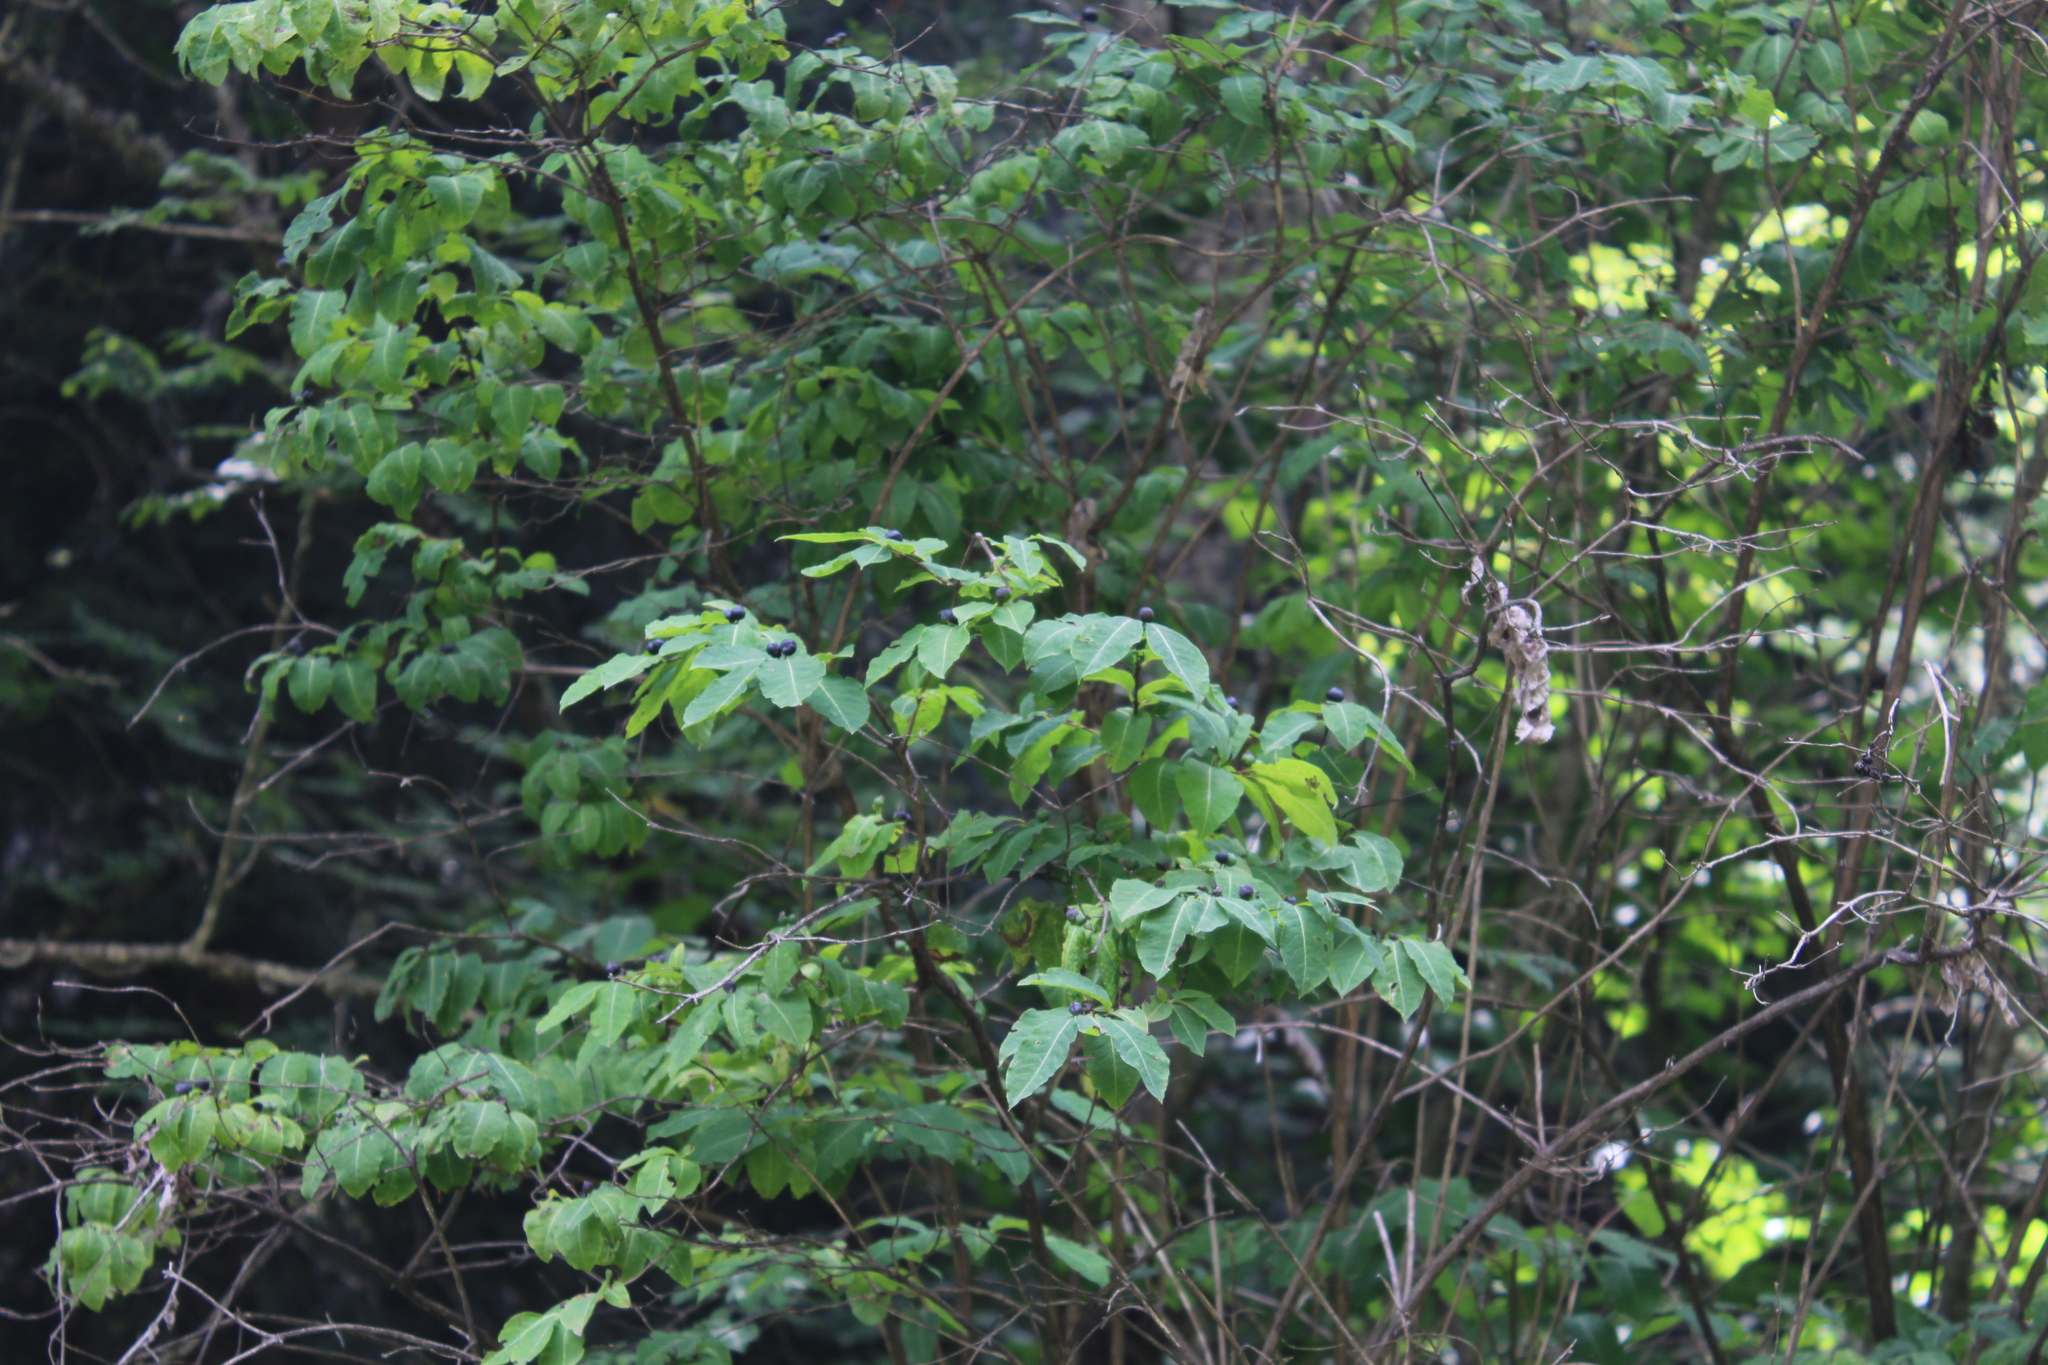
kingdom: Plantae
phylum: Tracheophyta
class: Magnoliopsida
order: Dipsacales
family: Caprifoliaceae
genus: Lonicera
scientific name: Lonicera caucasica
